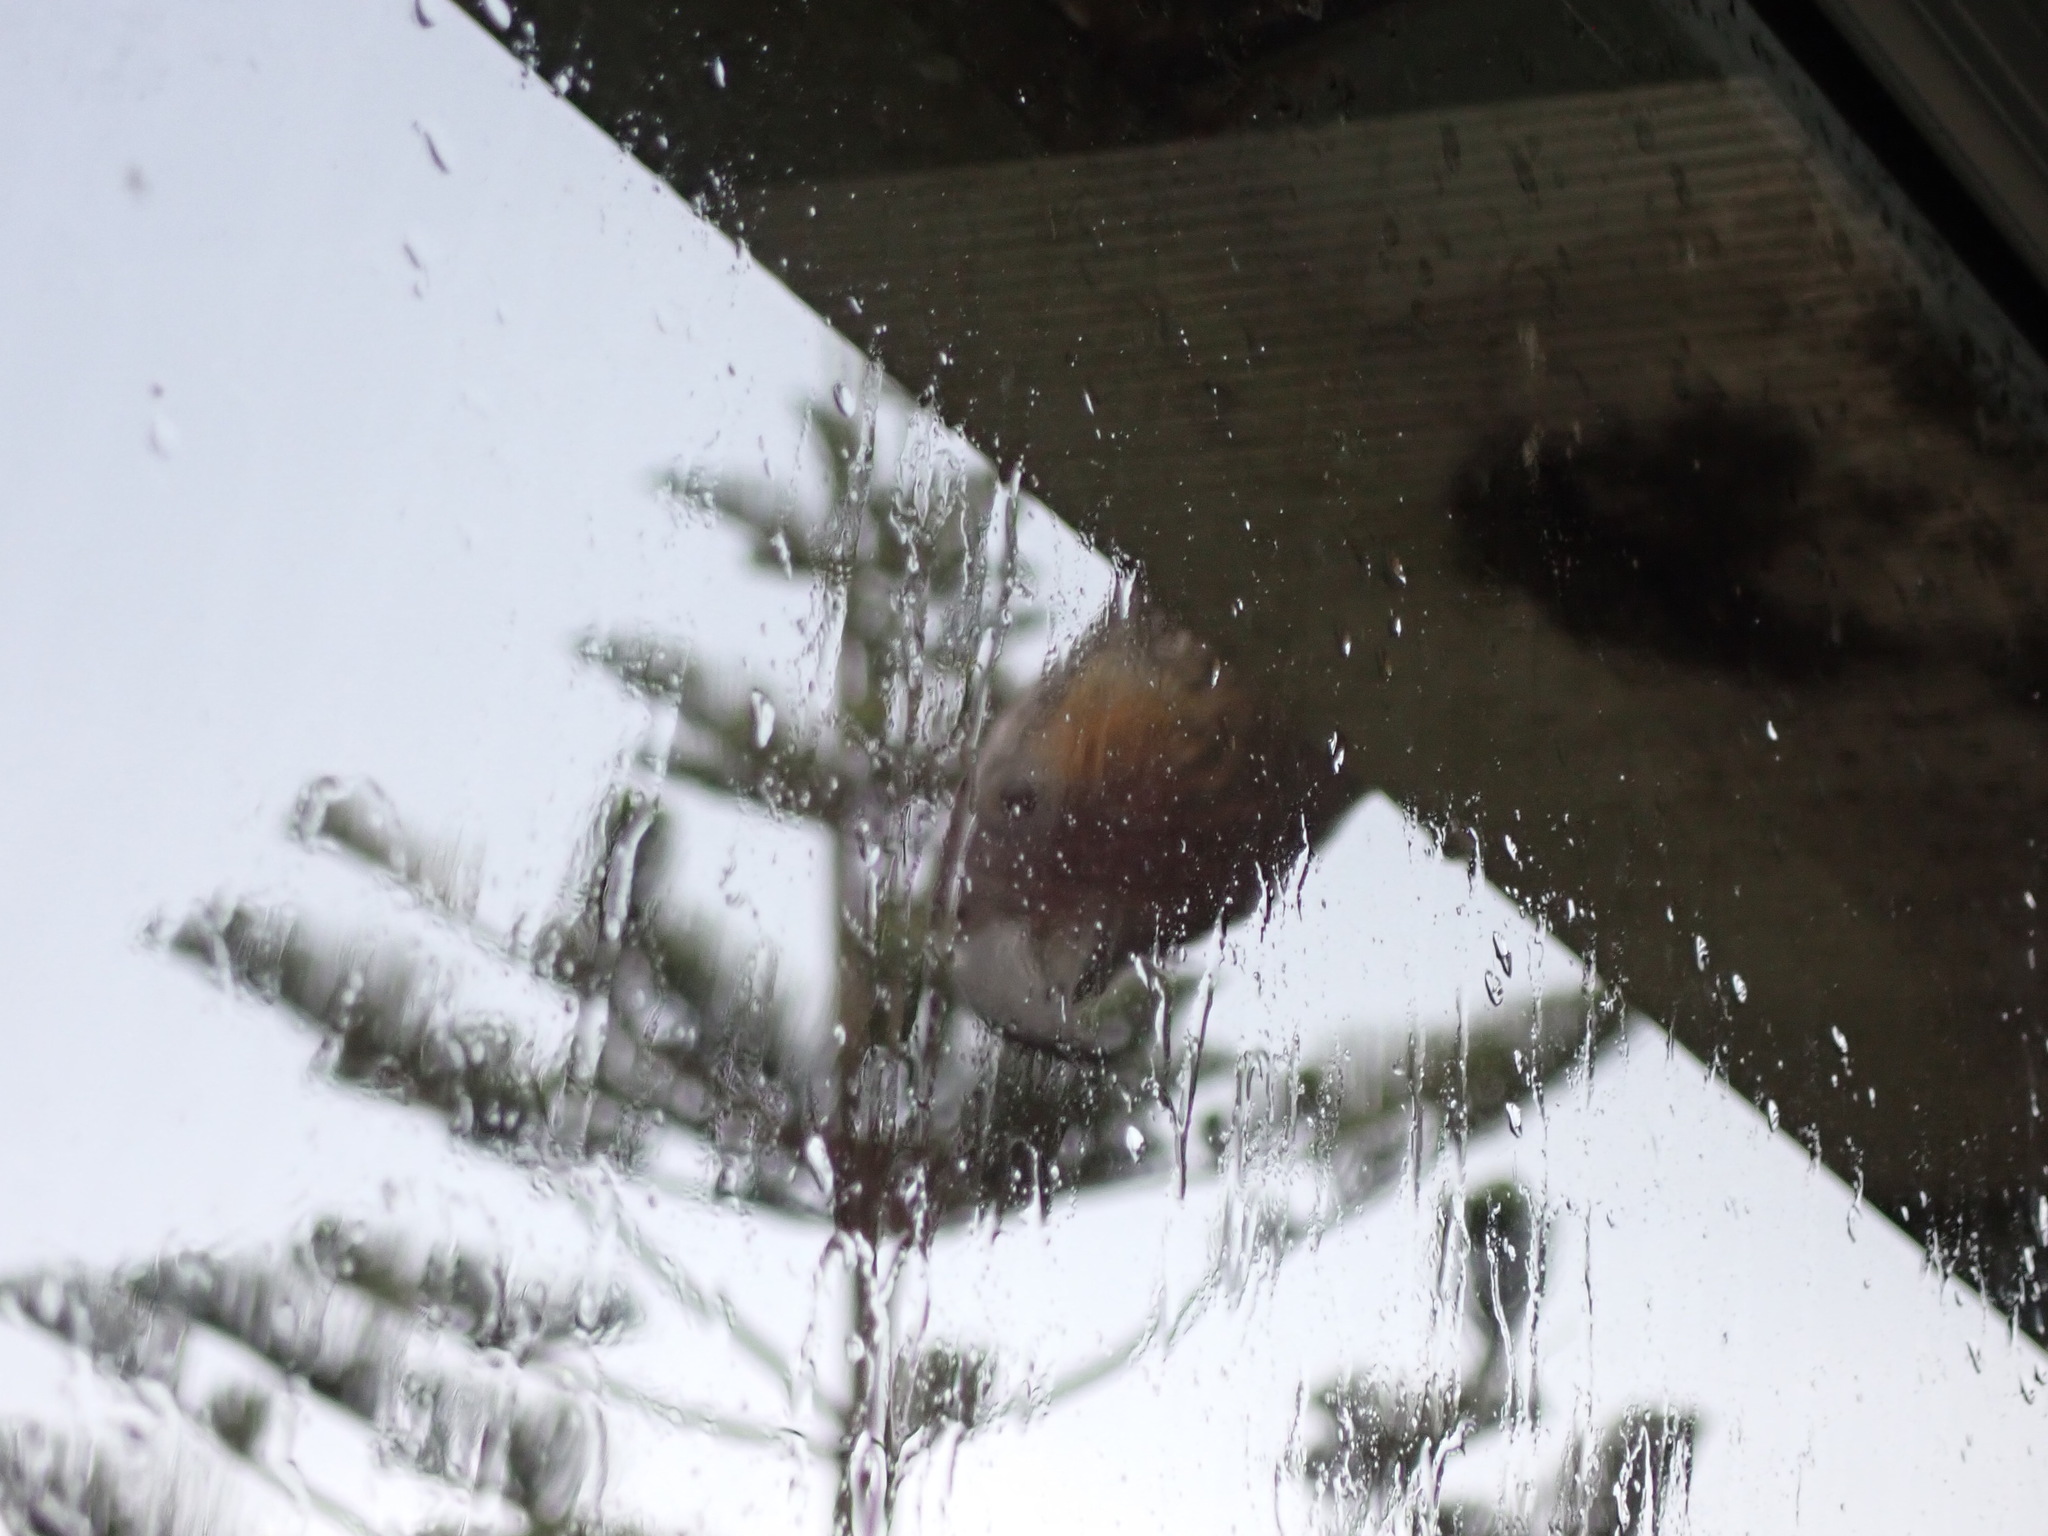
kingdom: Animalia
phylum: Chordata
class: Aves
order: Psittaciformes
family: Psittacidae
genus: Nestor
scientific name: Nestor meridionalis
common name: New zealand kaka
